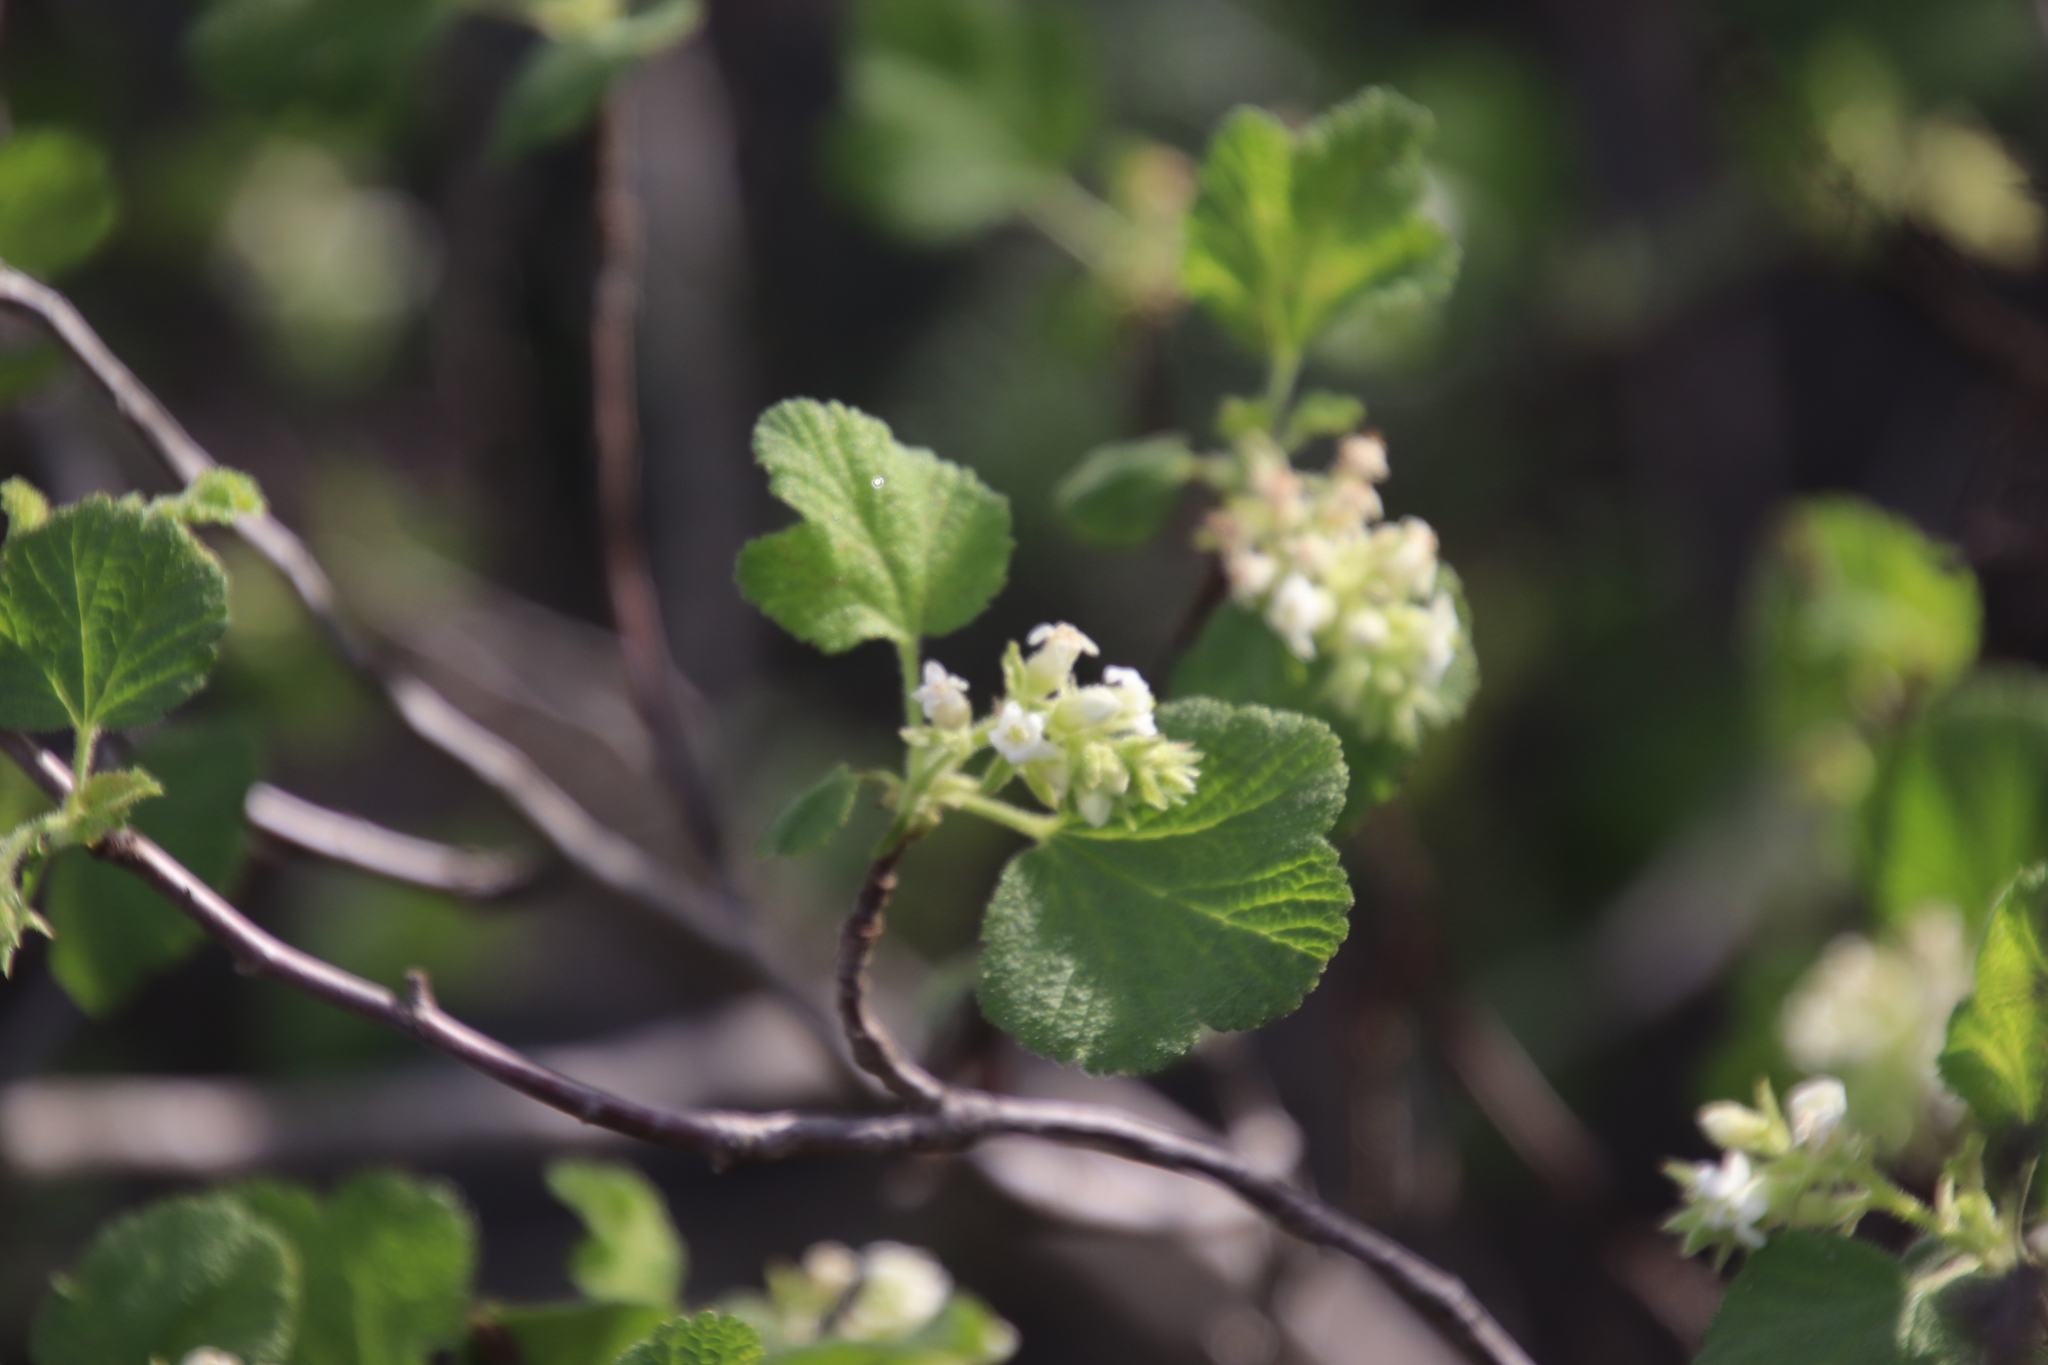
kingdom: Plantae
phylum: Tracheophyta
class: Magnoliopsida
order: Saxifragales
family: Grossulariaceae
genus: Ribes
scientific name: Ribes indecorum
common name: White-flower currant
